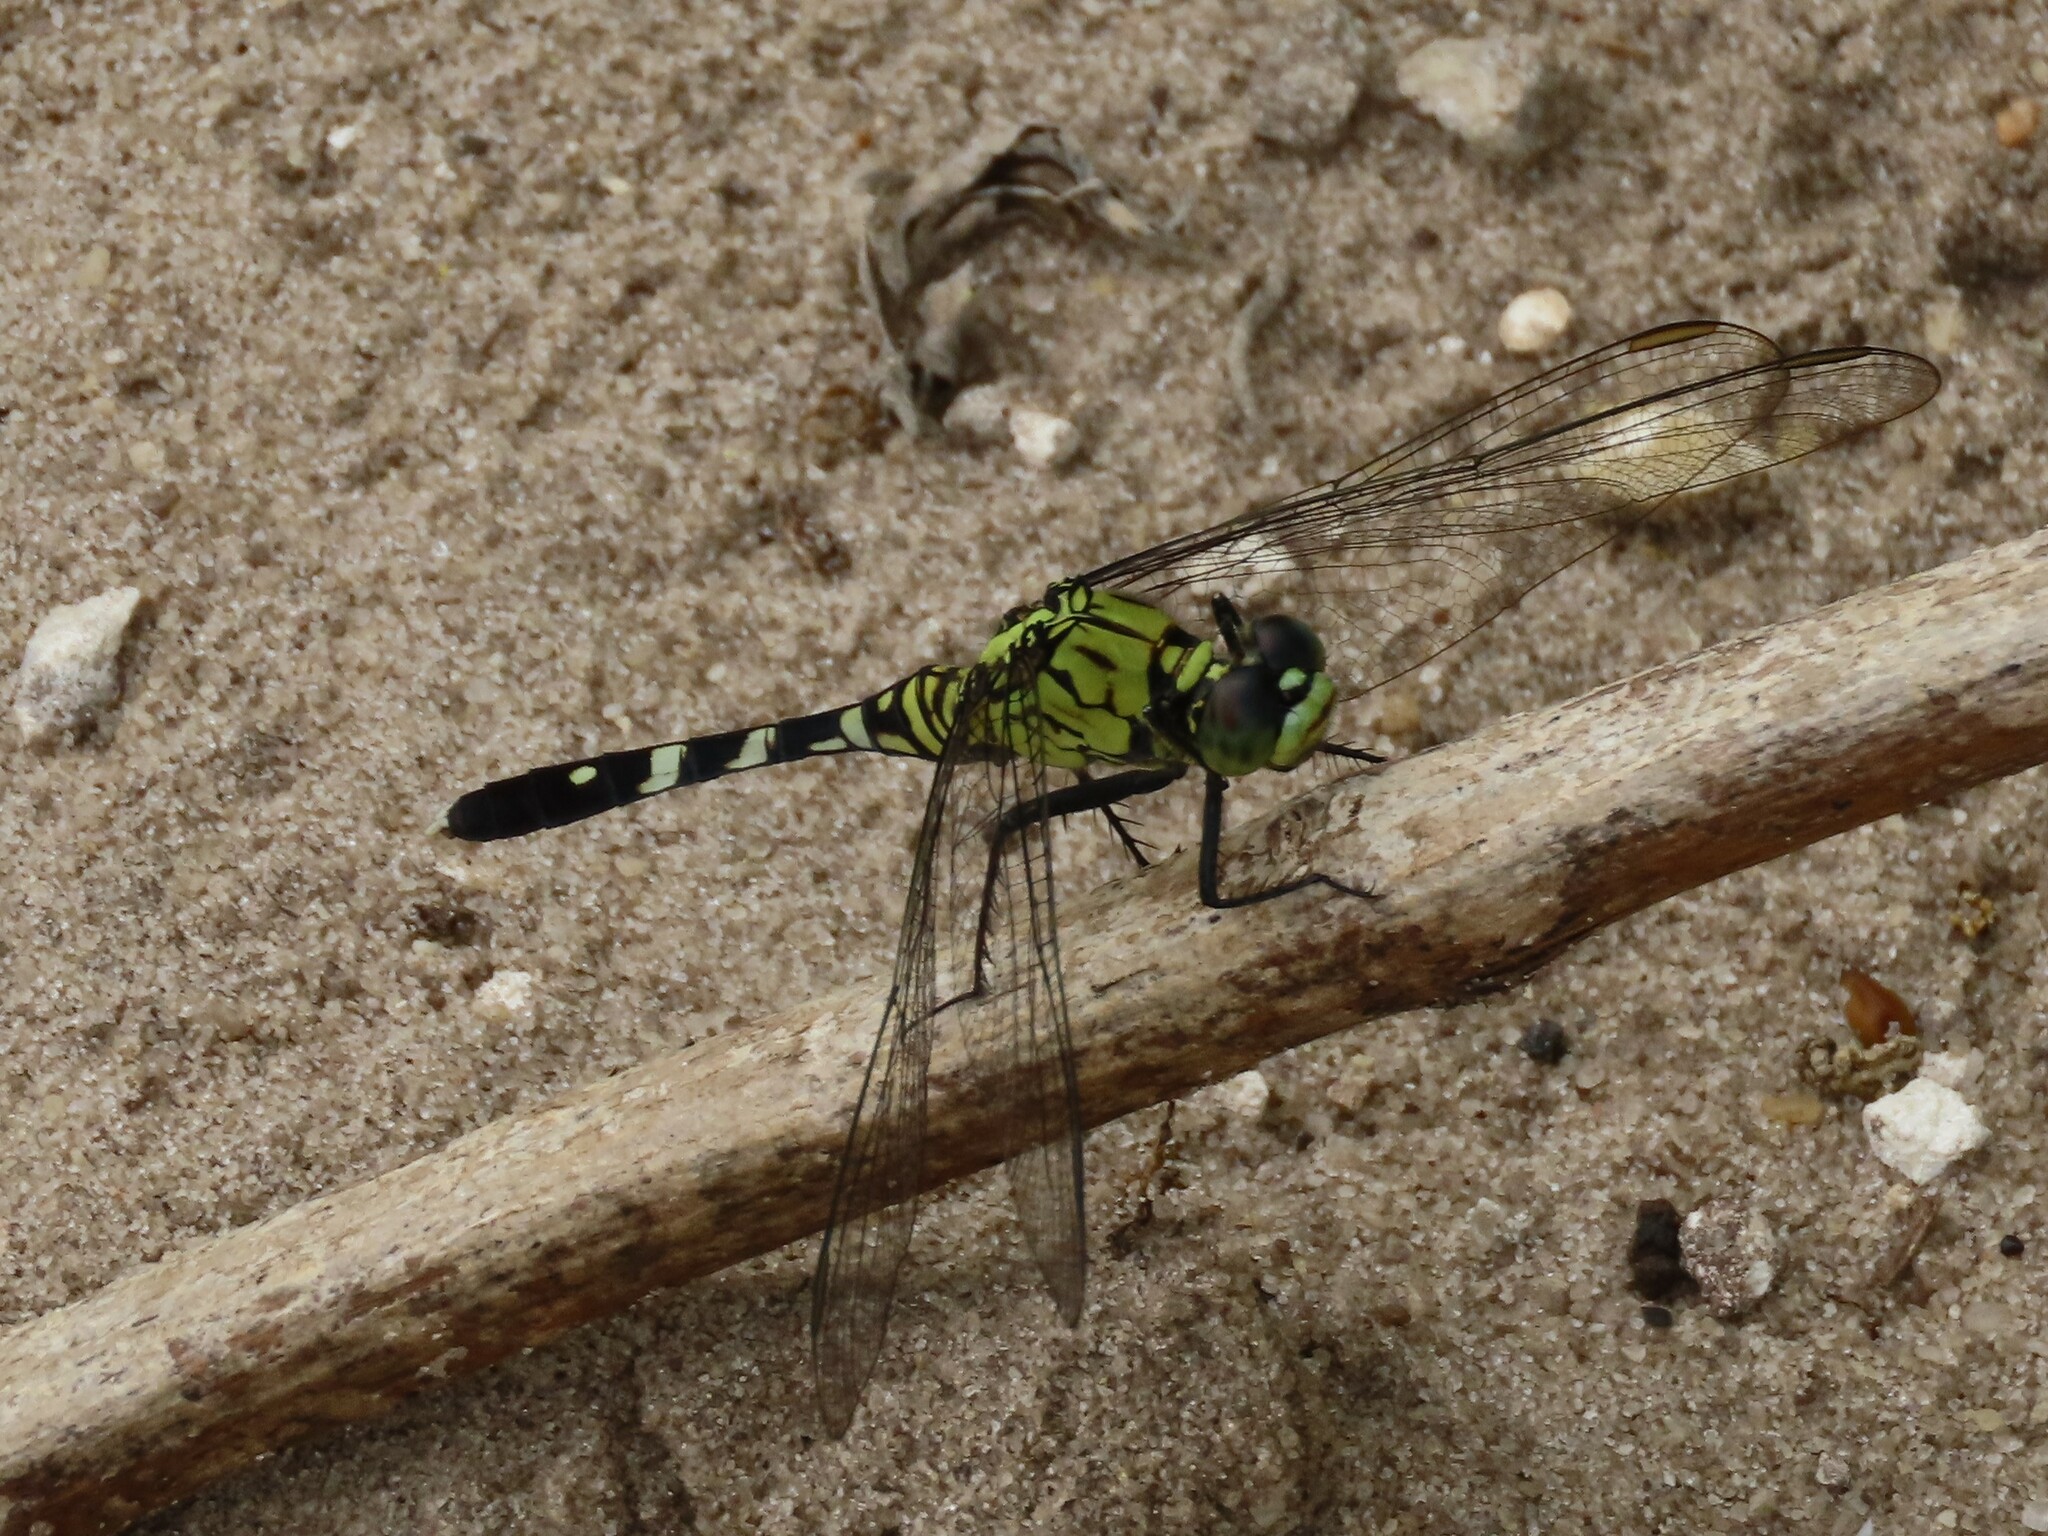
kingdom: Animalia
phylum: Arthropoda
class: Insecta
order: Odonata
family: Libellulidae
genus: Erythemis
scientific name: Erythemis simplicicollis
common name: Eastern pondhawk
